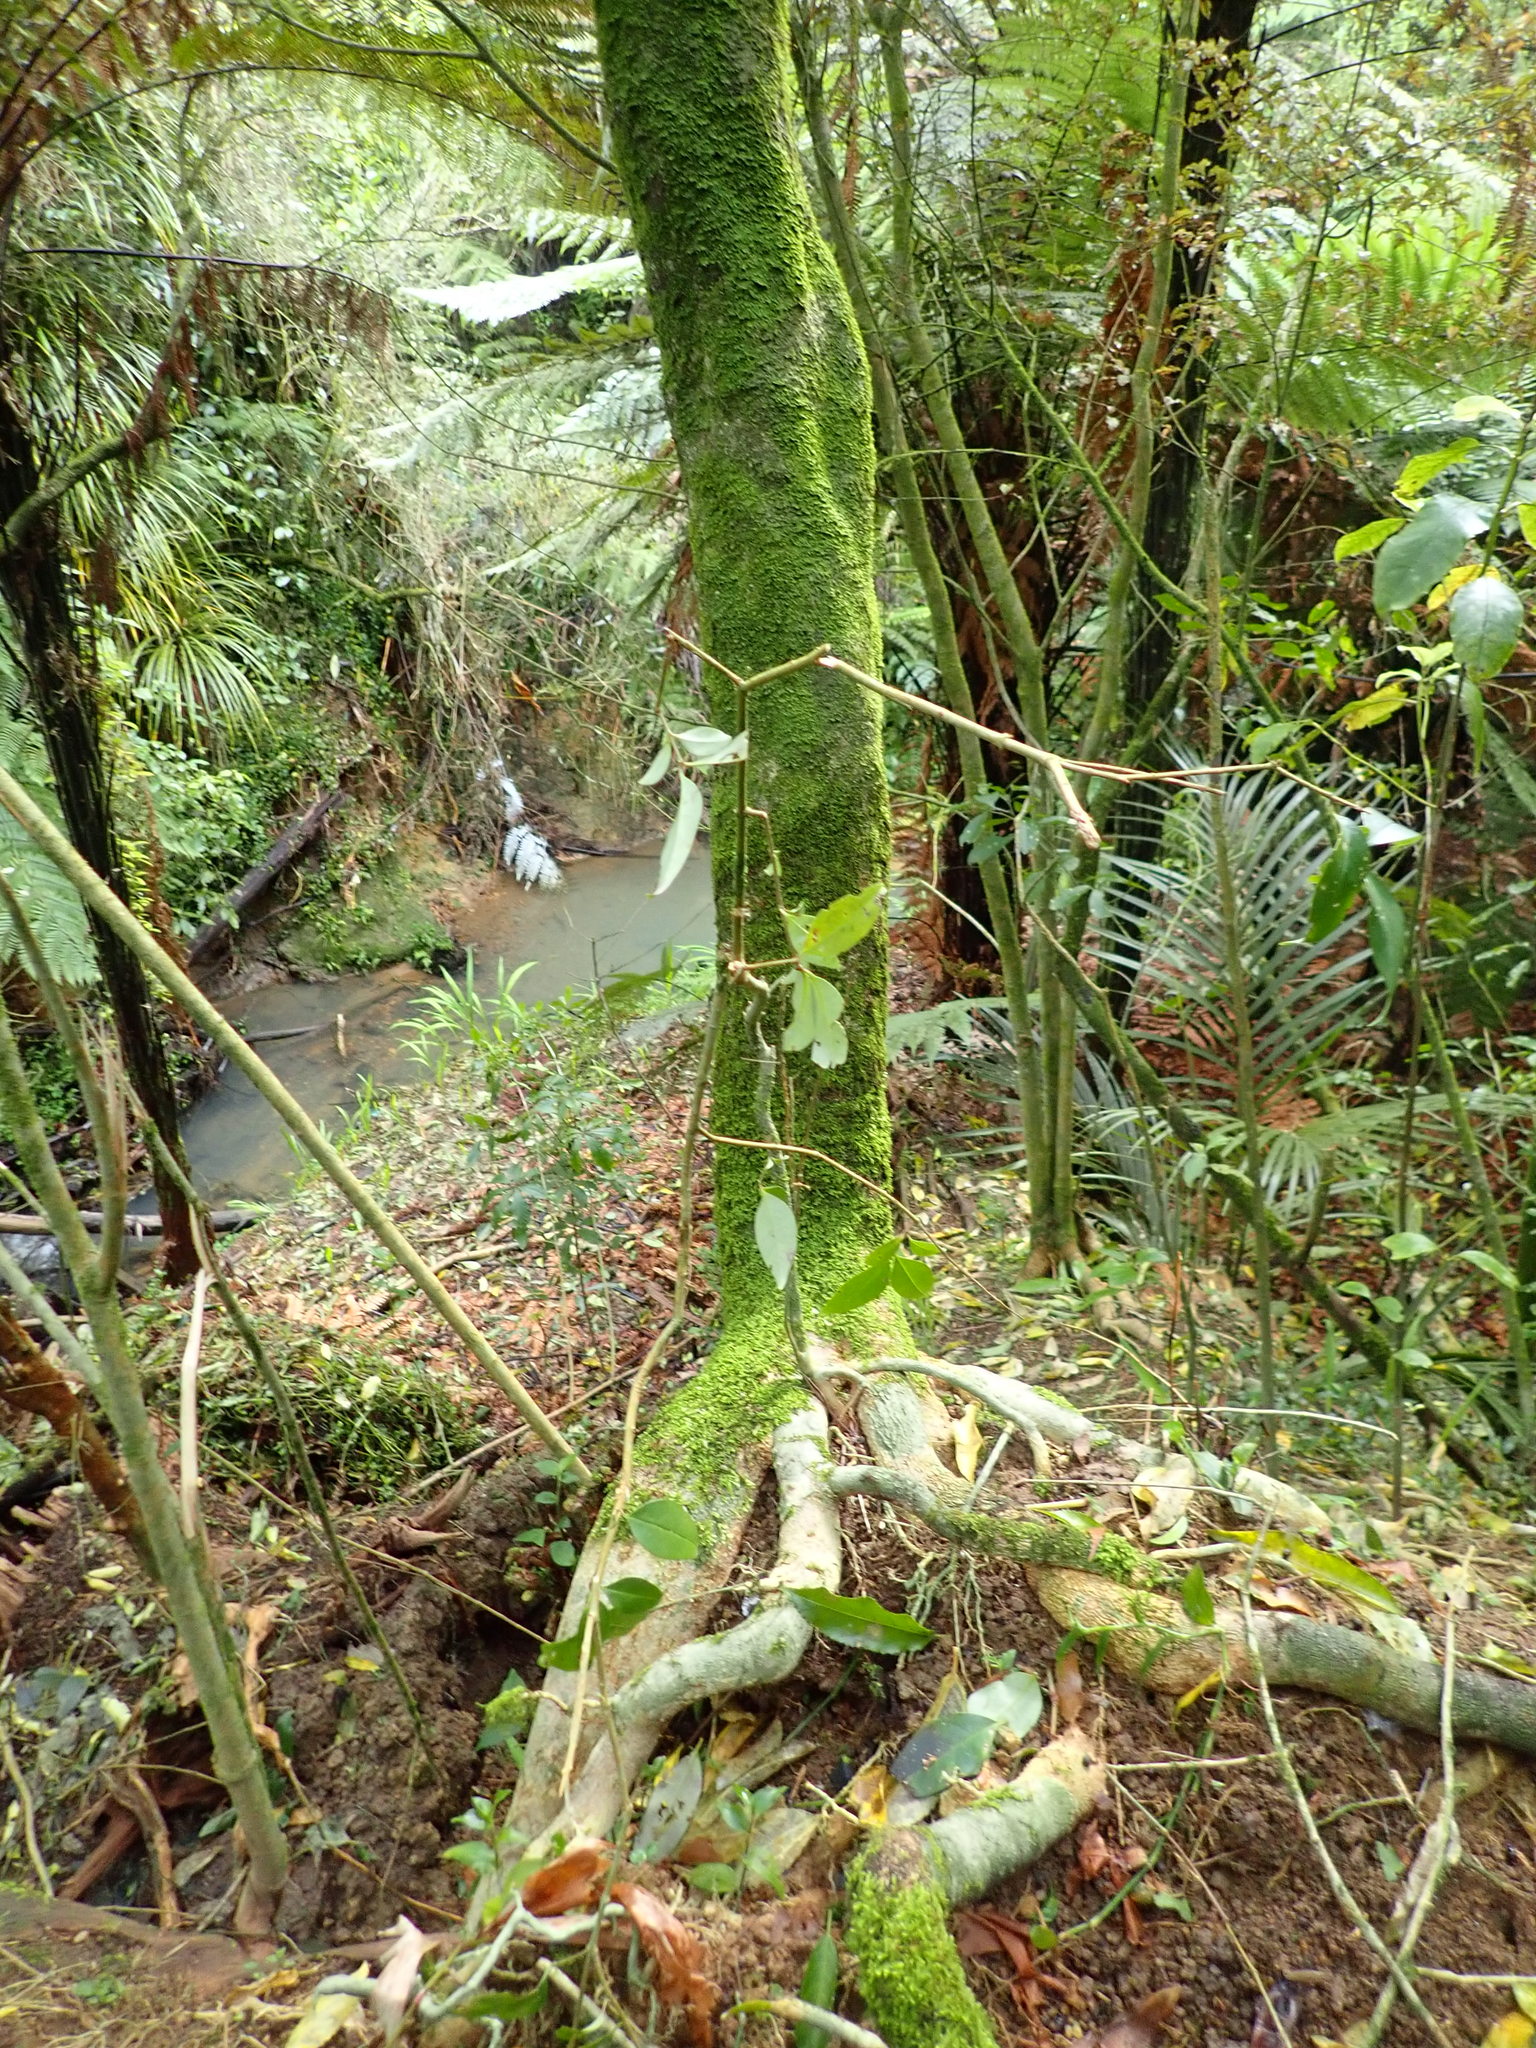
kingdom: Plantae
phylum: Tracheophyta
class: Magnoliopsida
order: Lamiales
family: Oleaceae
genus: Ligustrum
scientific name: Ligustrum lucidum
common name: Glossy privet
